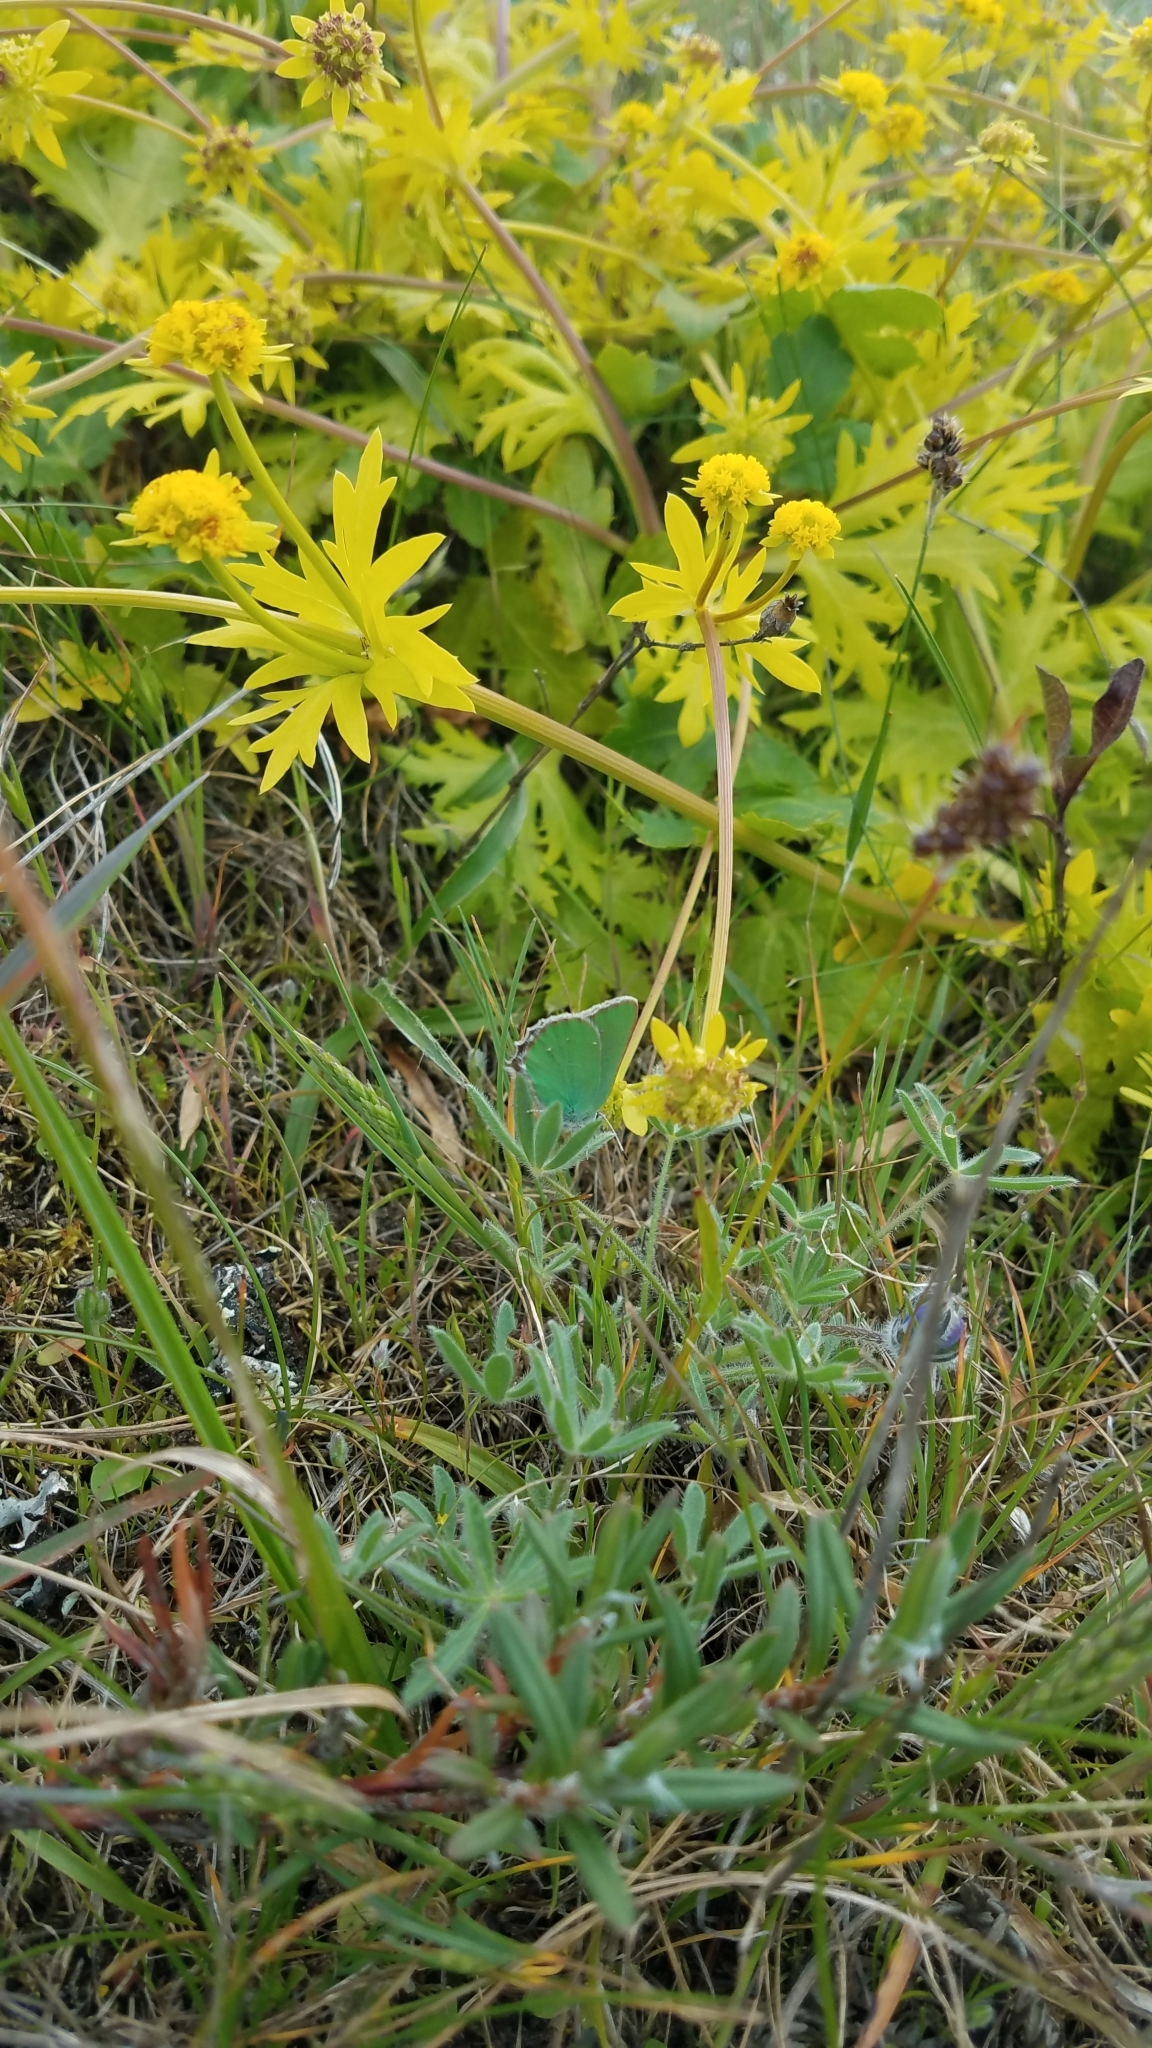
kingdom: Animalia
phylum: Arthropoda
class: Insecta
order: Lepidoptera
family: Lycaenidae
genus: Callophrys
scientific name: Callophrys viridis
